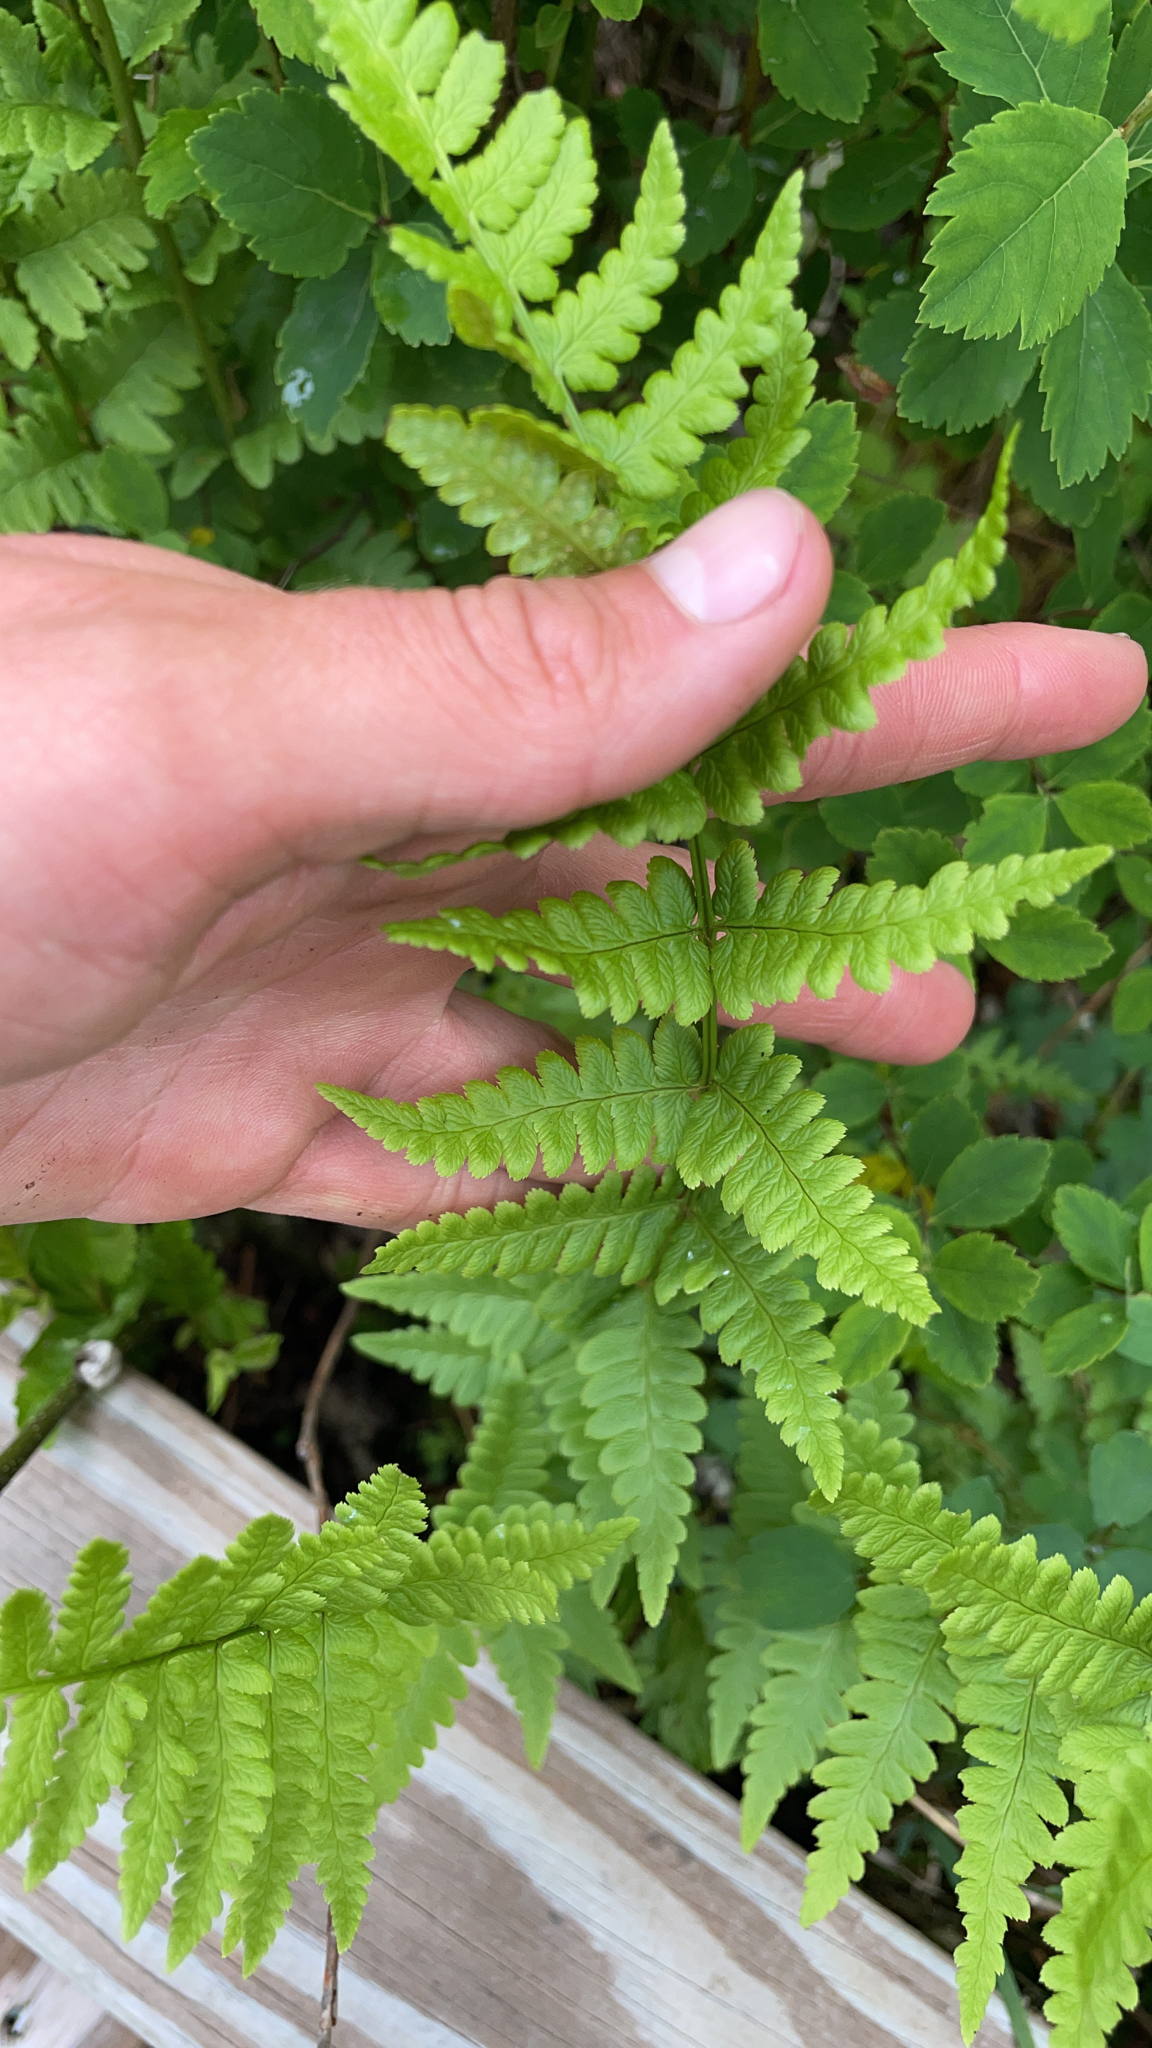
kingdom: Plantae
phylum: Tracheophyta
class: Polypodiopsida
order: Polypodiales
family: Dryopteridaceae
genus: Dryopteris
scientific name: Dryopteris cristata
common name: Crested wood fern
